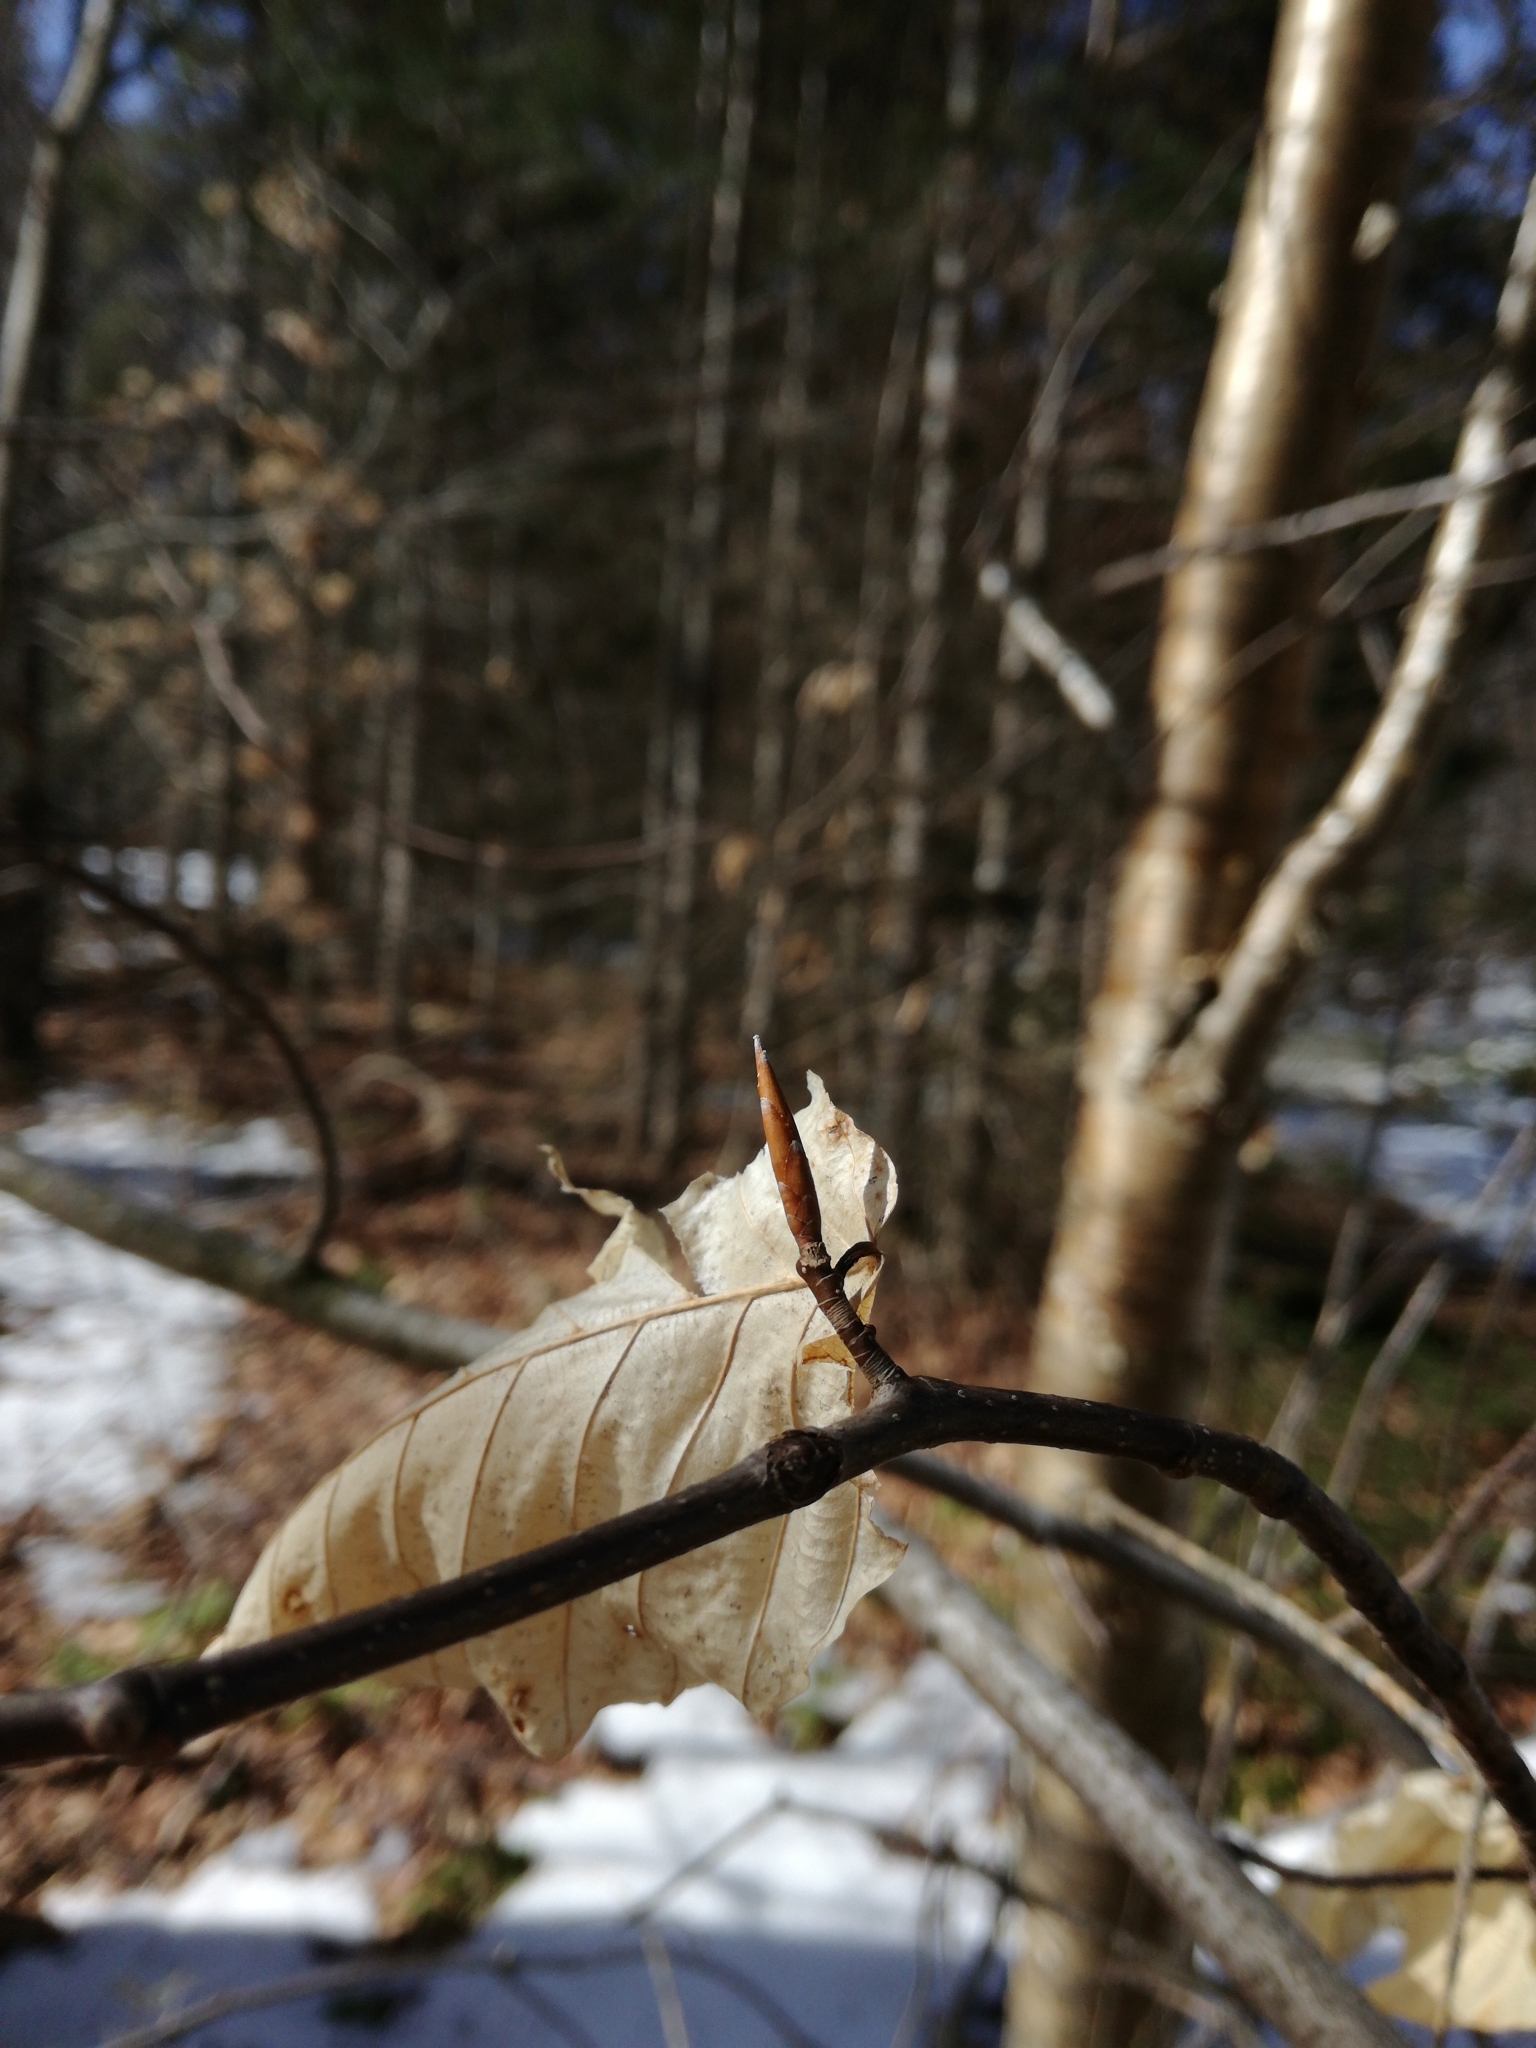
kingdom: Plantae
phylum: Tracheophyta
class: Magnoliopsida
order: Fagales
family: Fagaceae
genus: Fagus
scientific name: Fagus grandifolia
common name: American beech
